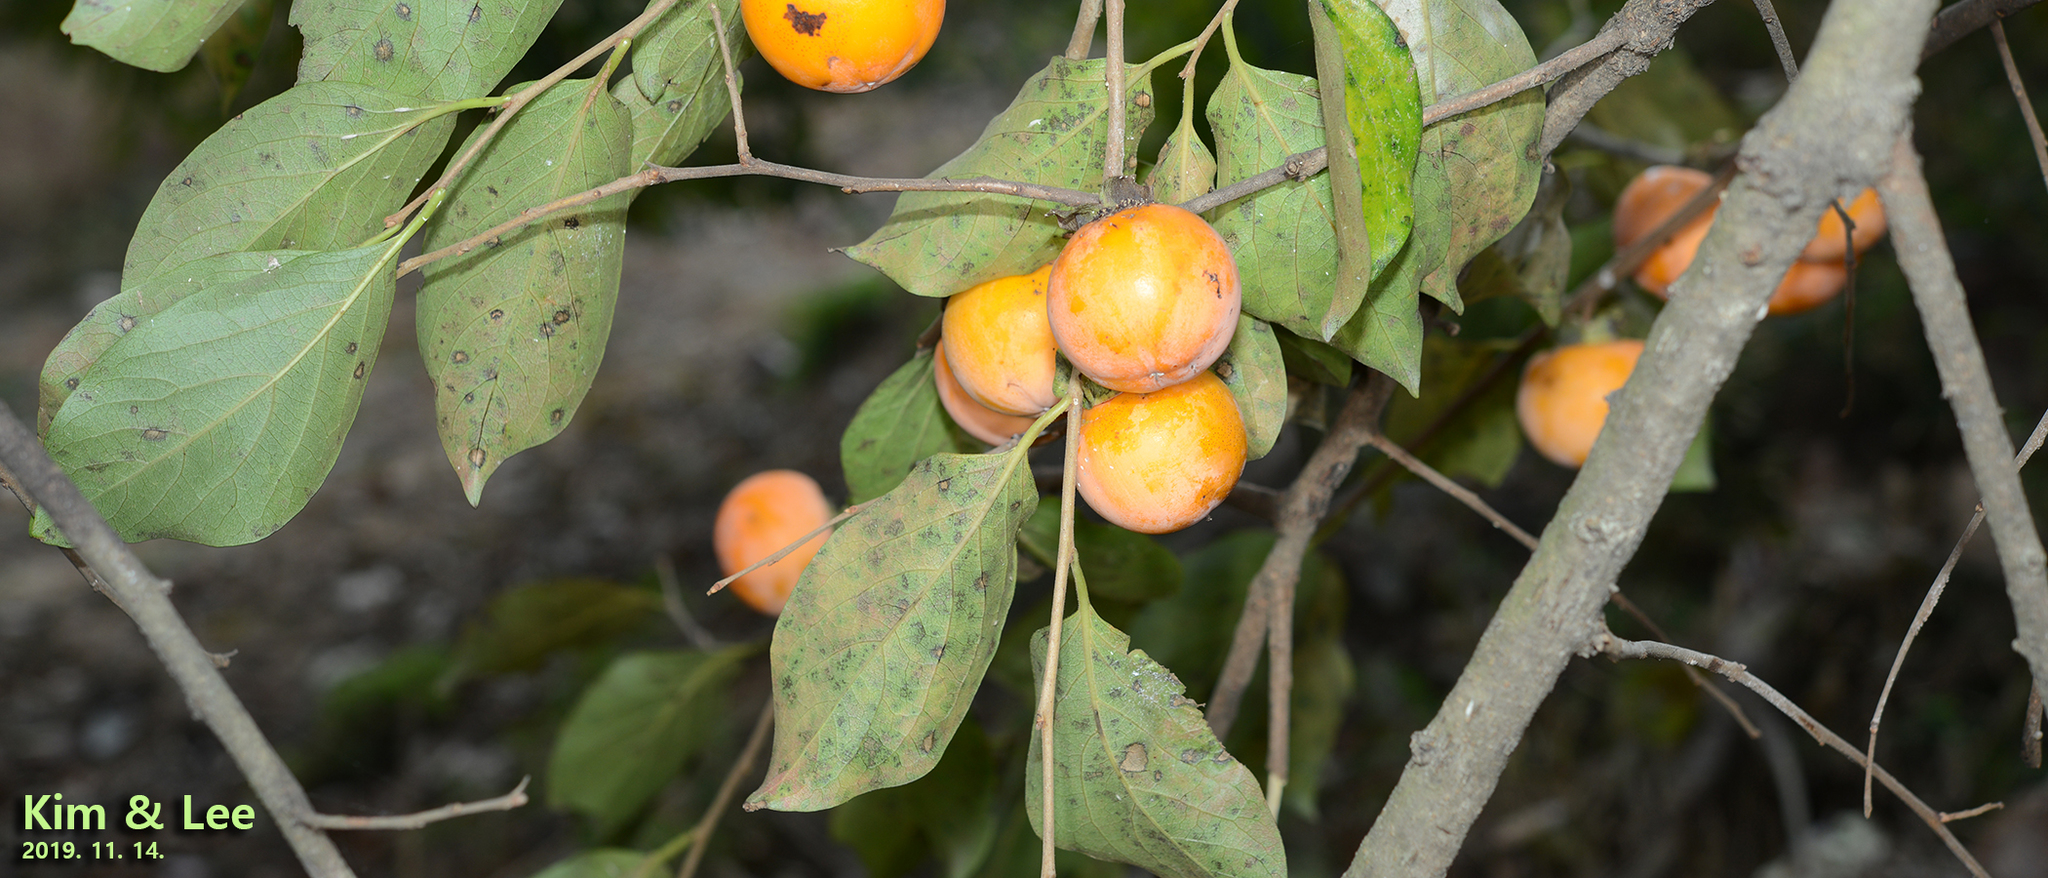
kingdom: Plantae
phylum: Tracheophyta
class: Magnoliopsida
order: Ericales
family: Ebenaceae
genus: Diospyros
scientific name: Diospyros kaki
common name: Persimmon
